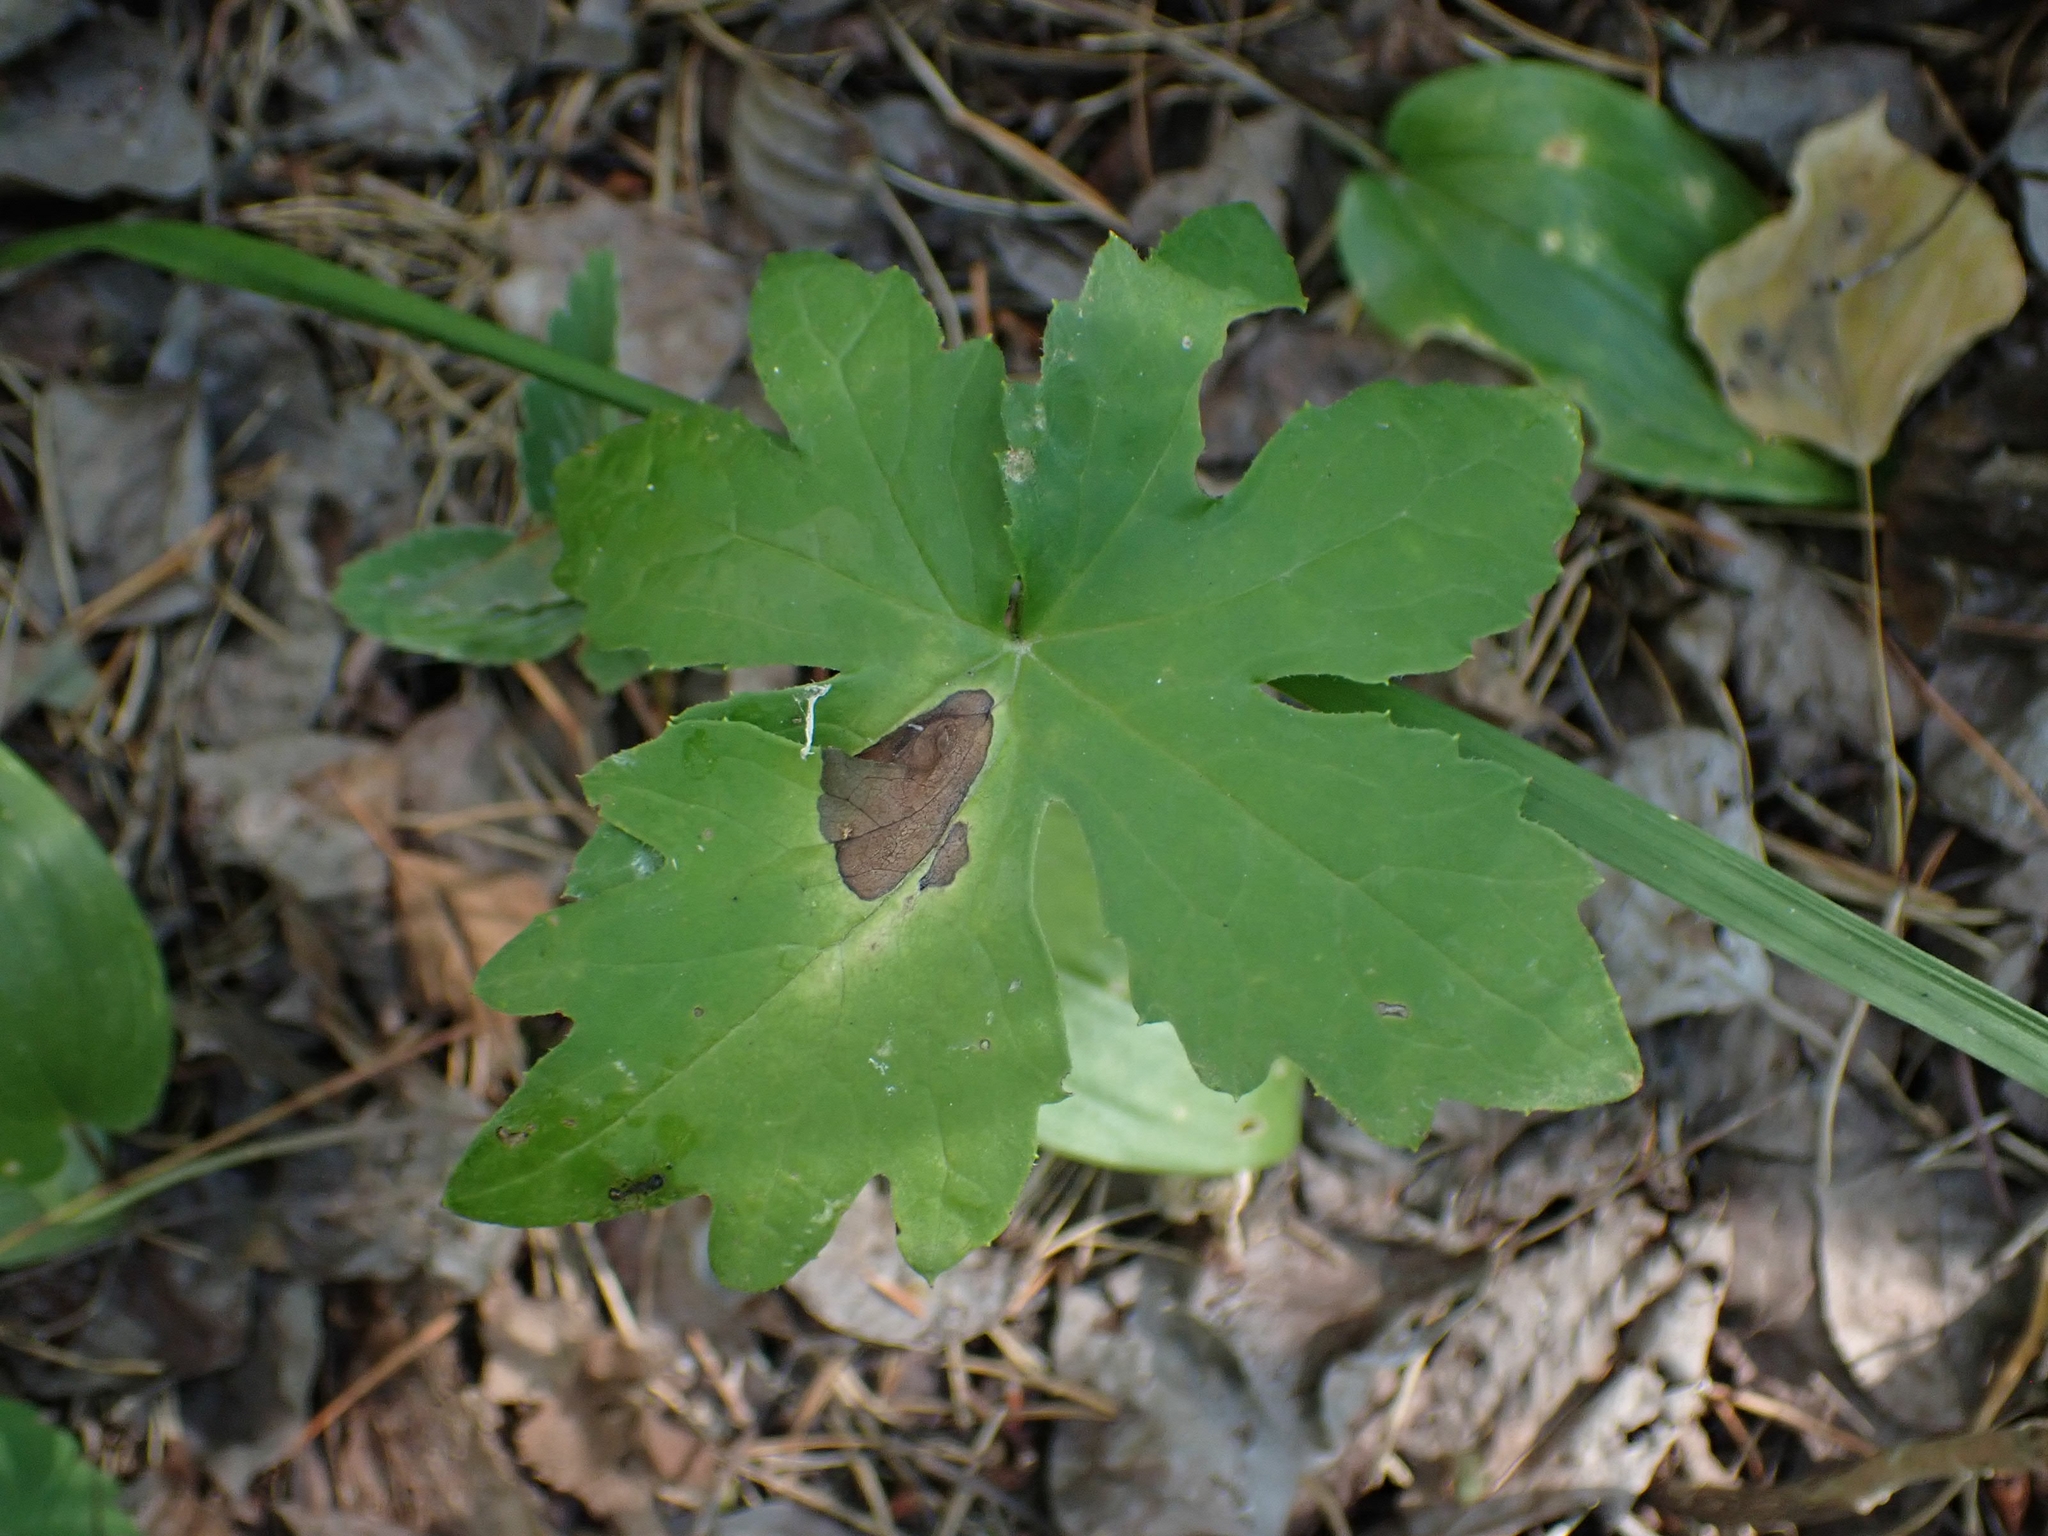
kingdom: Plantae
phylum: Tracheophyta
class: Magnoliopsida
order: Asterales
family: Asteraceae
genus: Petasites
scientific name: Petasites frigidus
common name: Arctic butterbur
